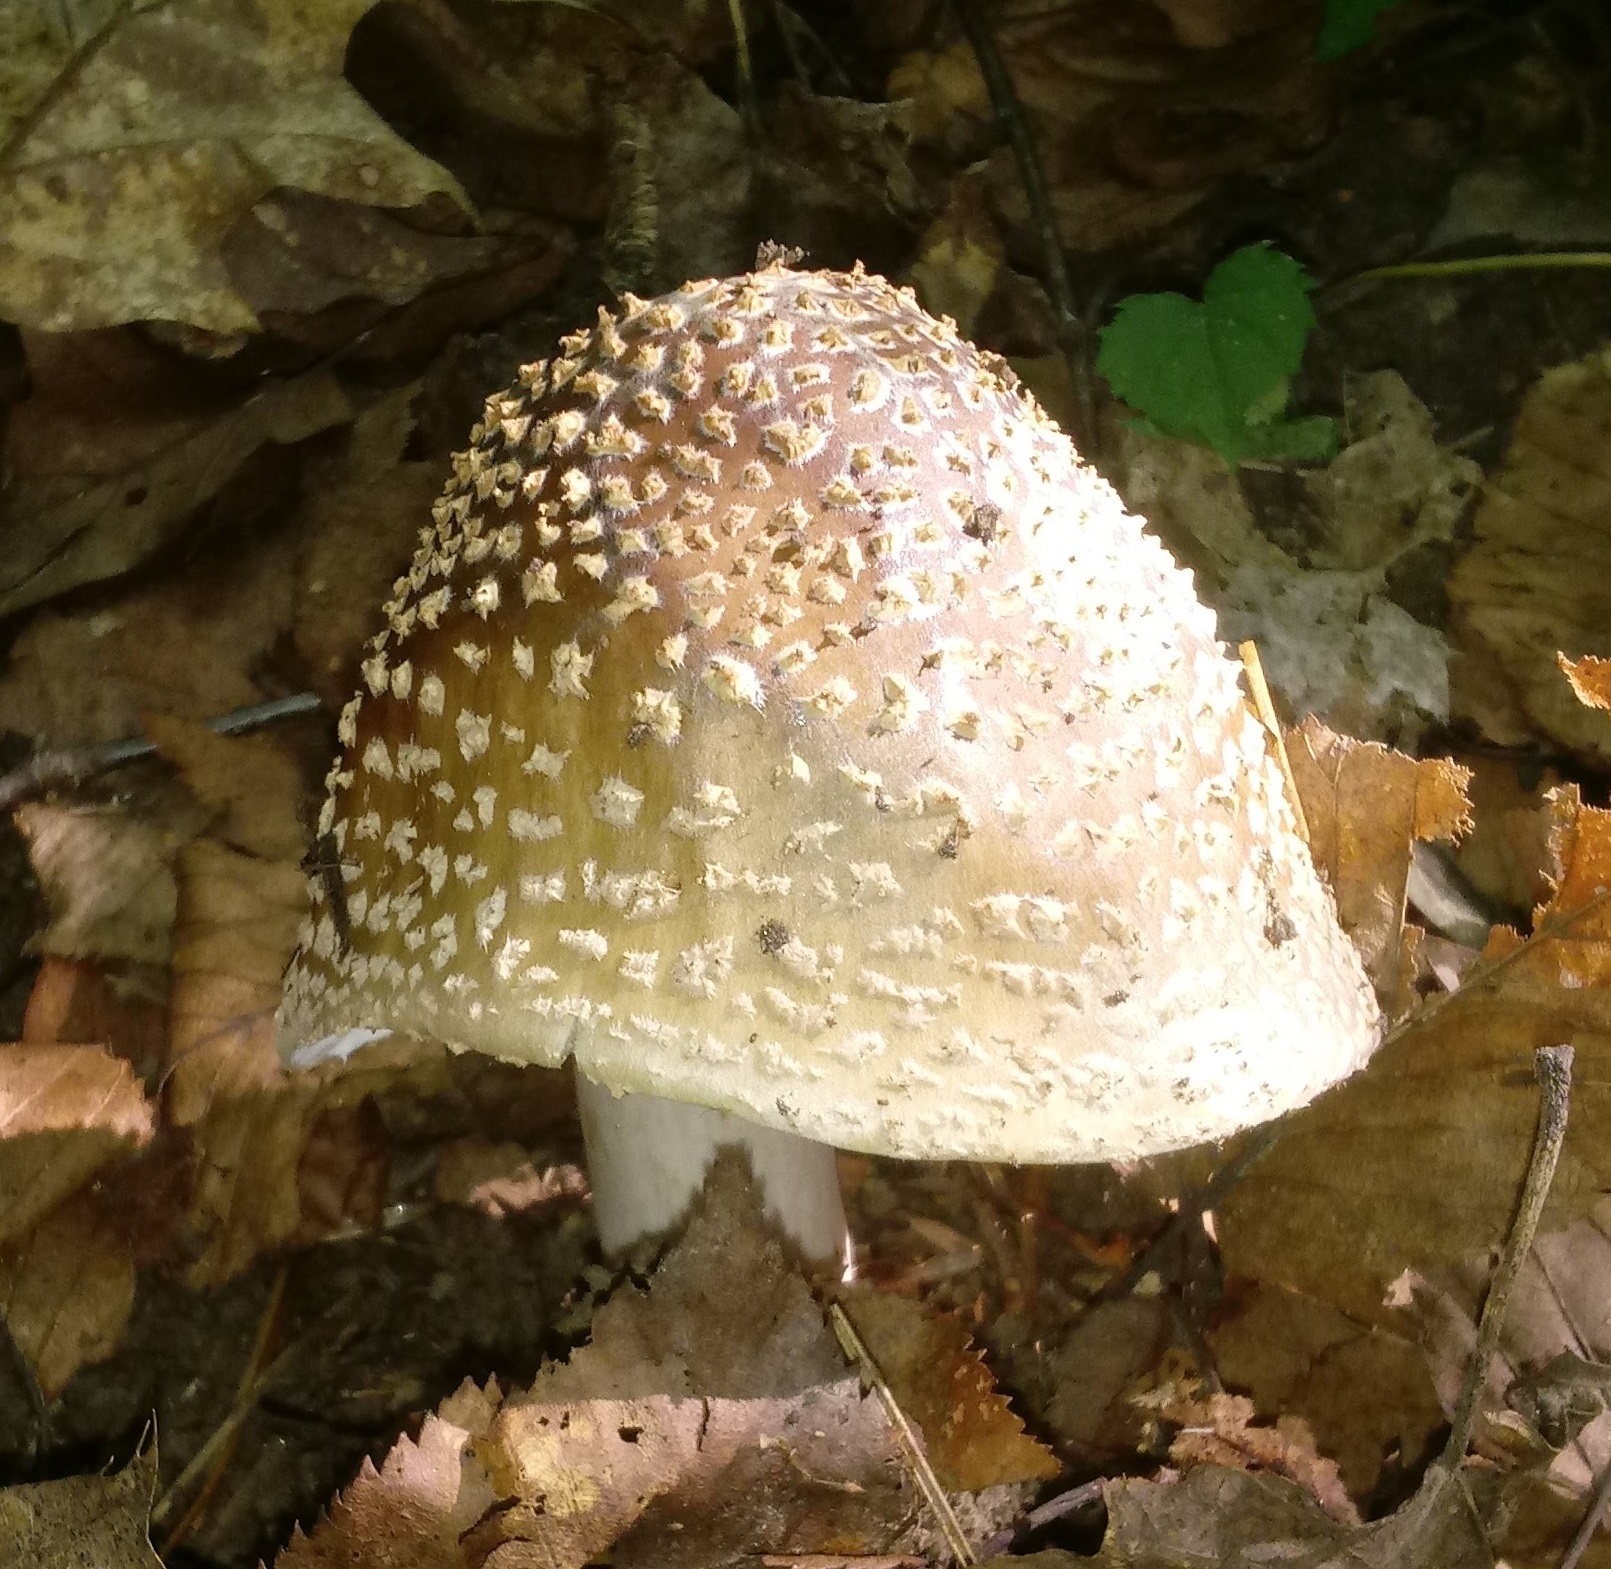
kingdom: Fungi
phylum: Basidiomycota
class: Agaricomycetes
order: Agaricales
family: Amanitaceae
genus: Amanita
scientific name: Amanita rubescens
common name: Blusher
